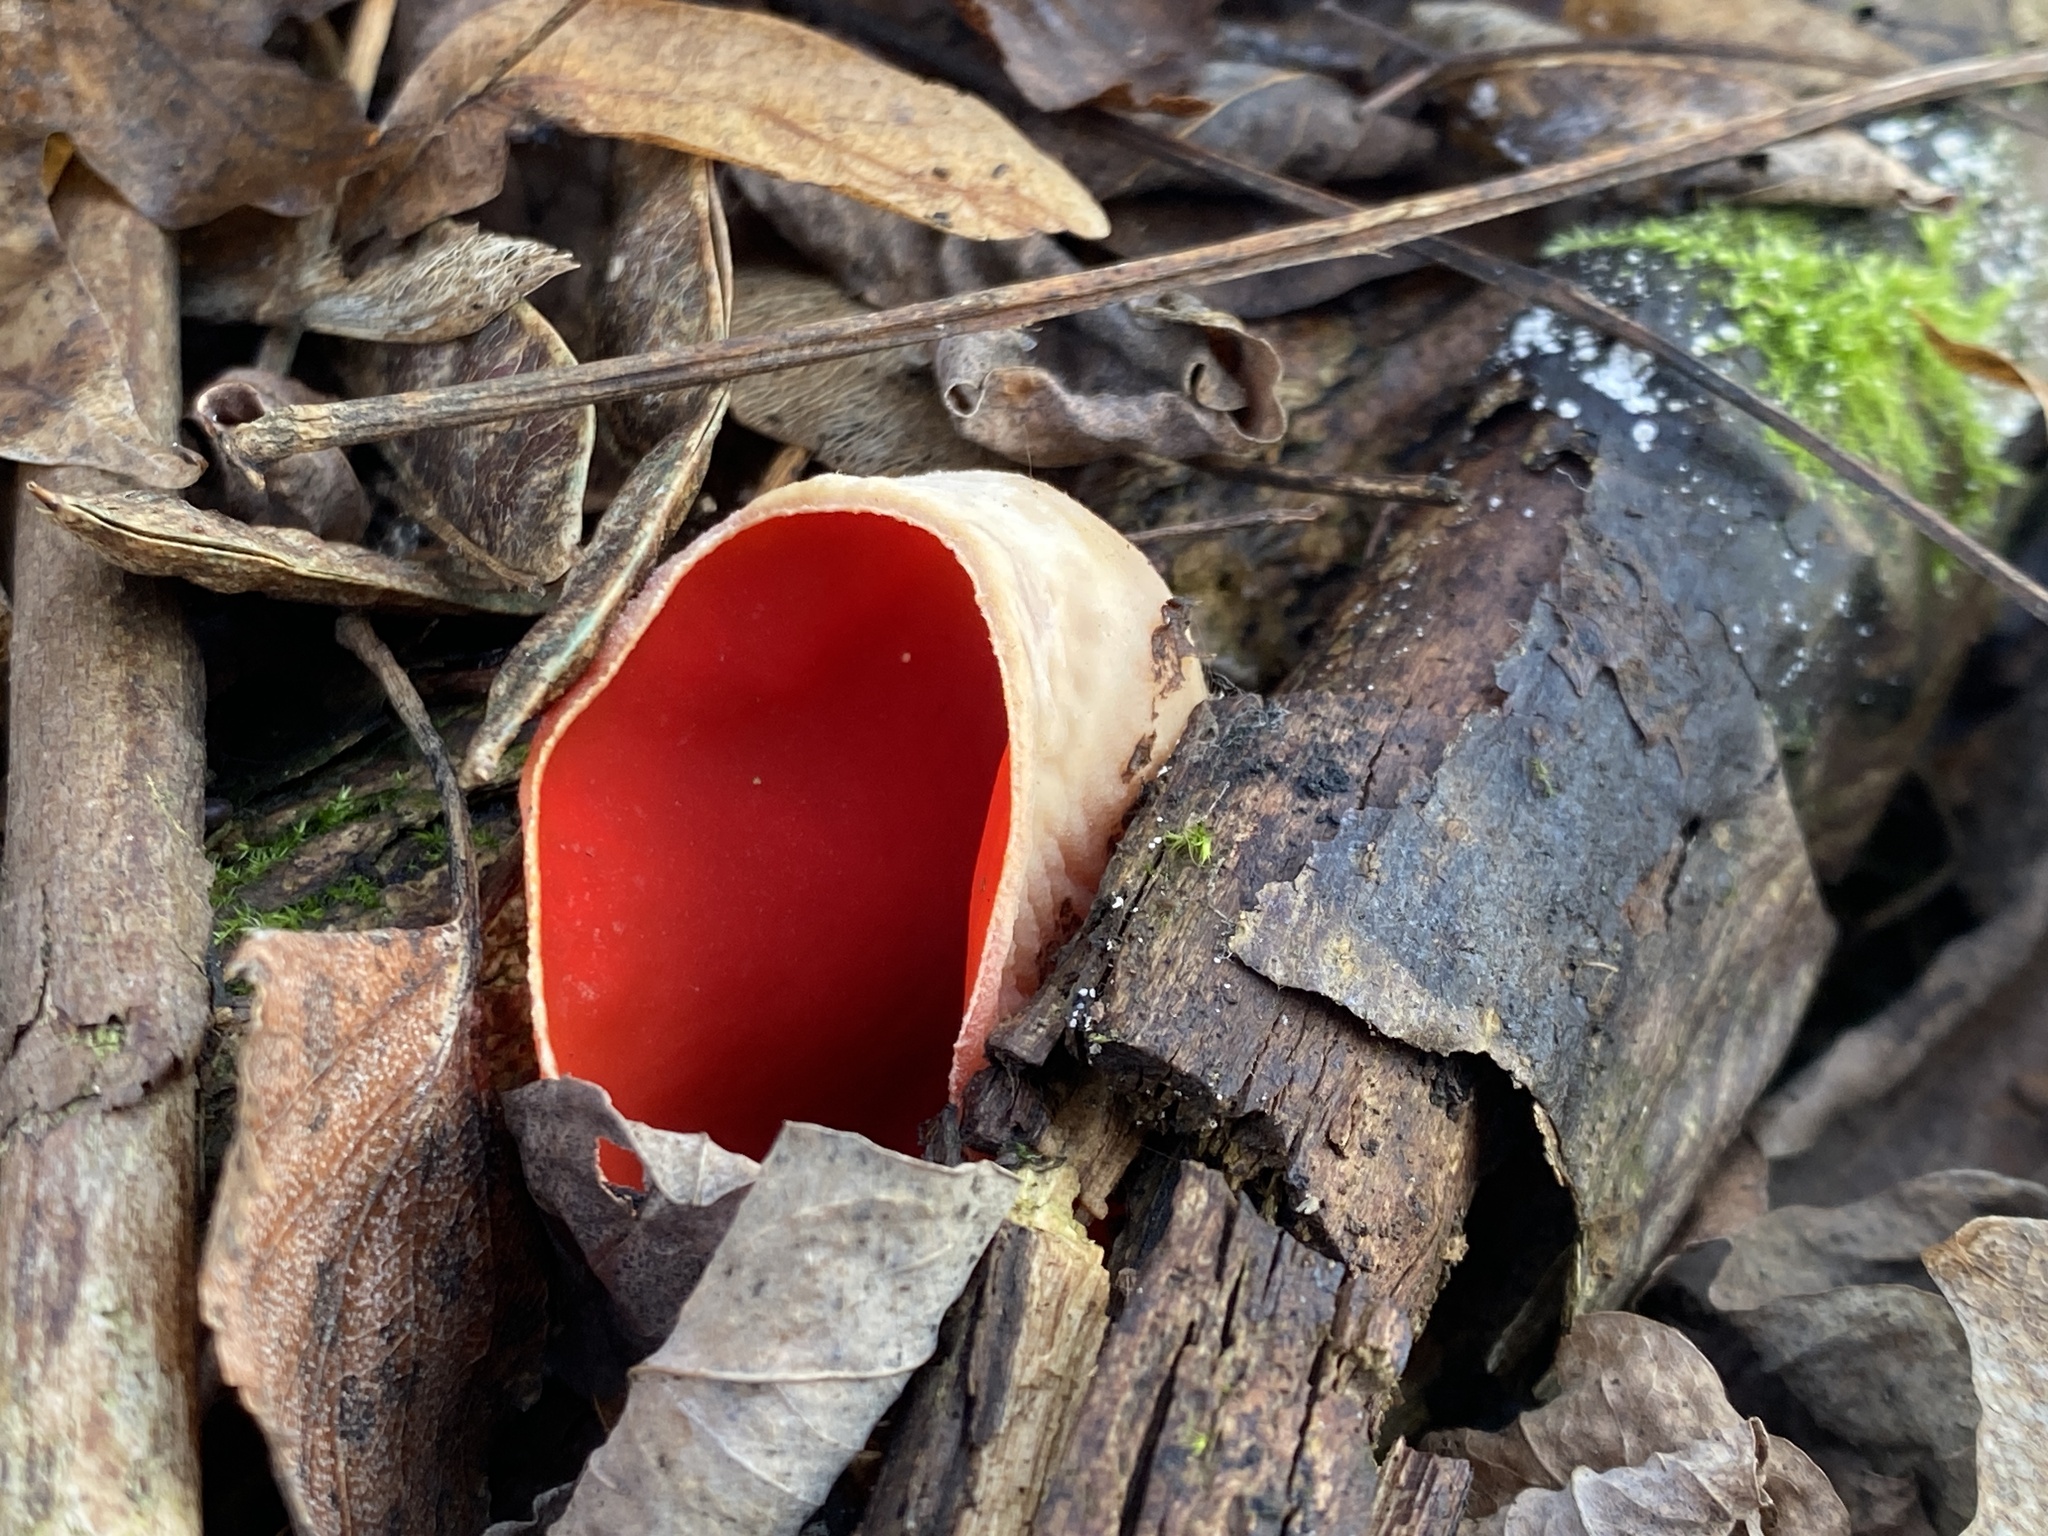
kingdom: Fungi
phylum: Ascomycota
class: Pezizomycetes
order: Pezizales
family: Sarcoscyphaceae
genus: Sarcoscypha
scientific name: Sarcoscypha austriaca
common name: Scarlet elfcup
